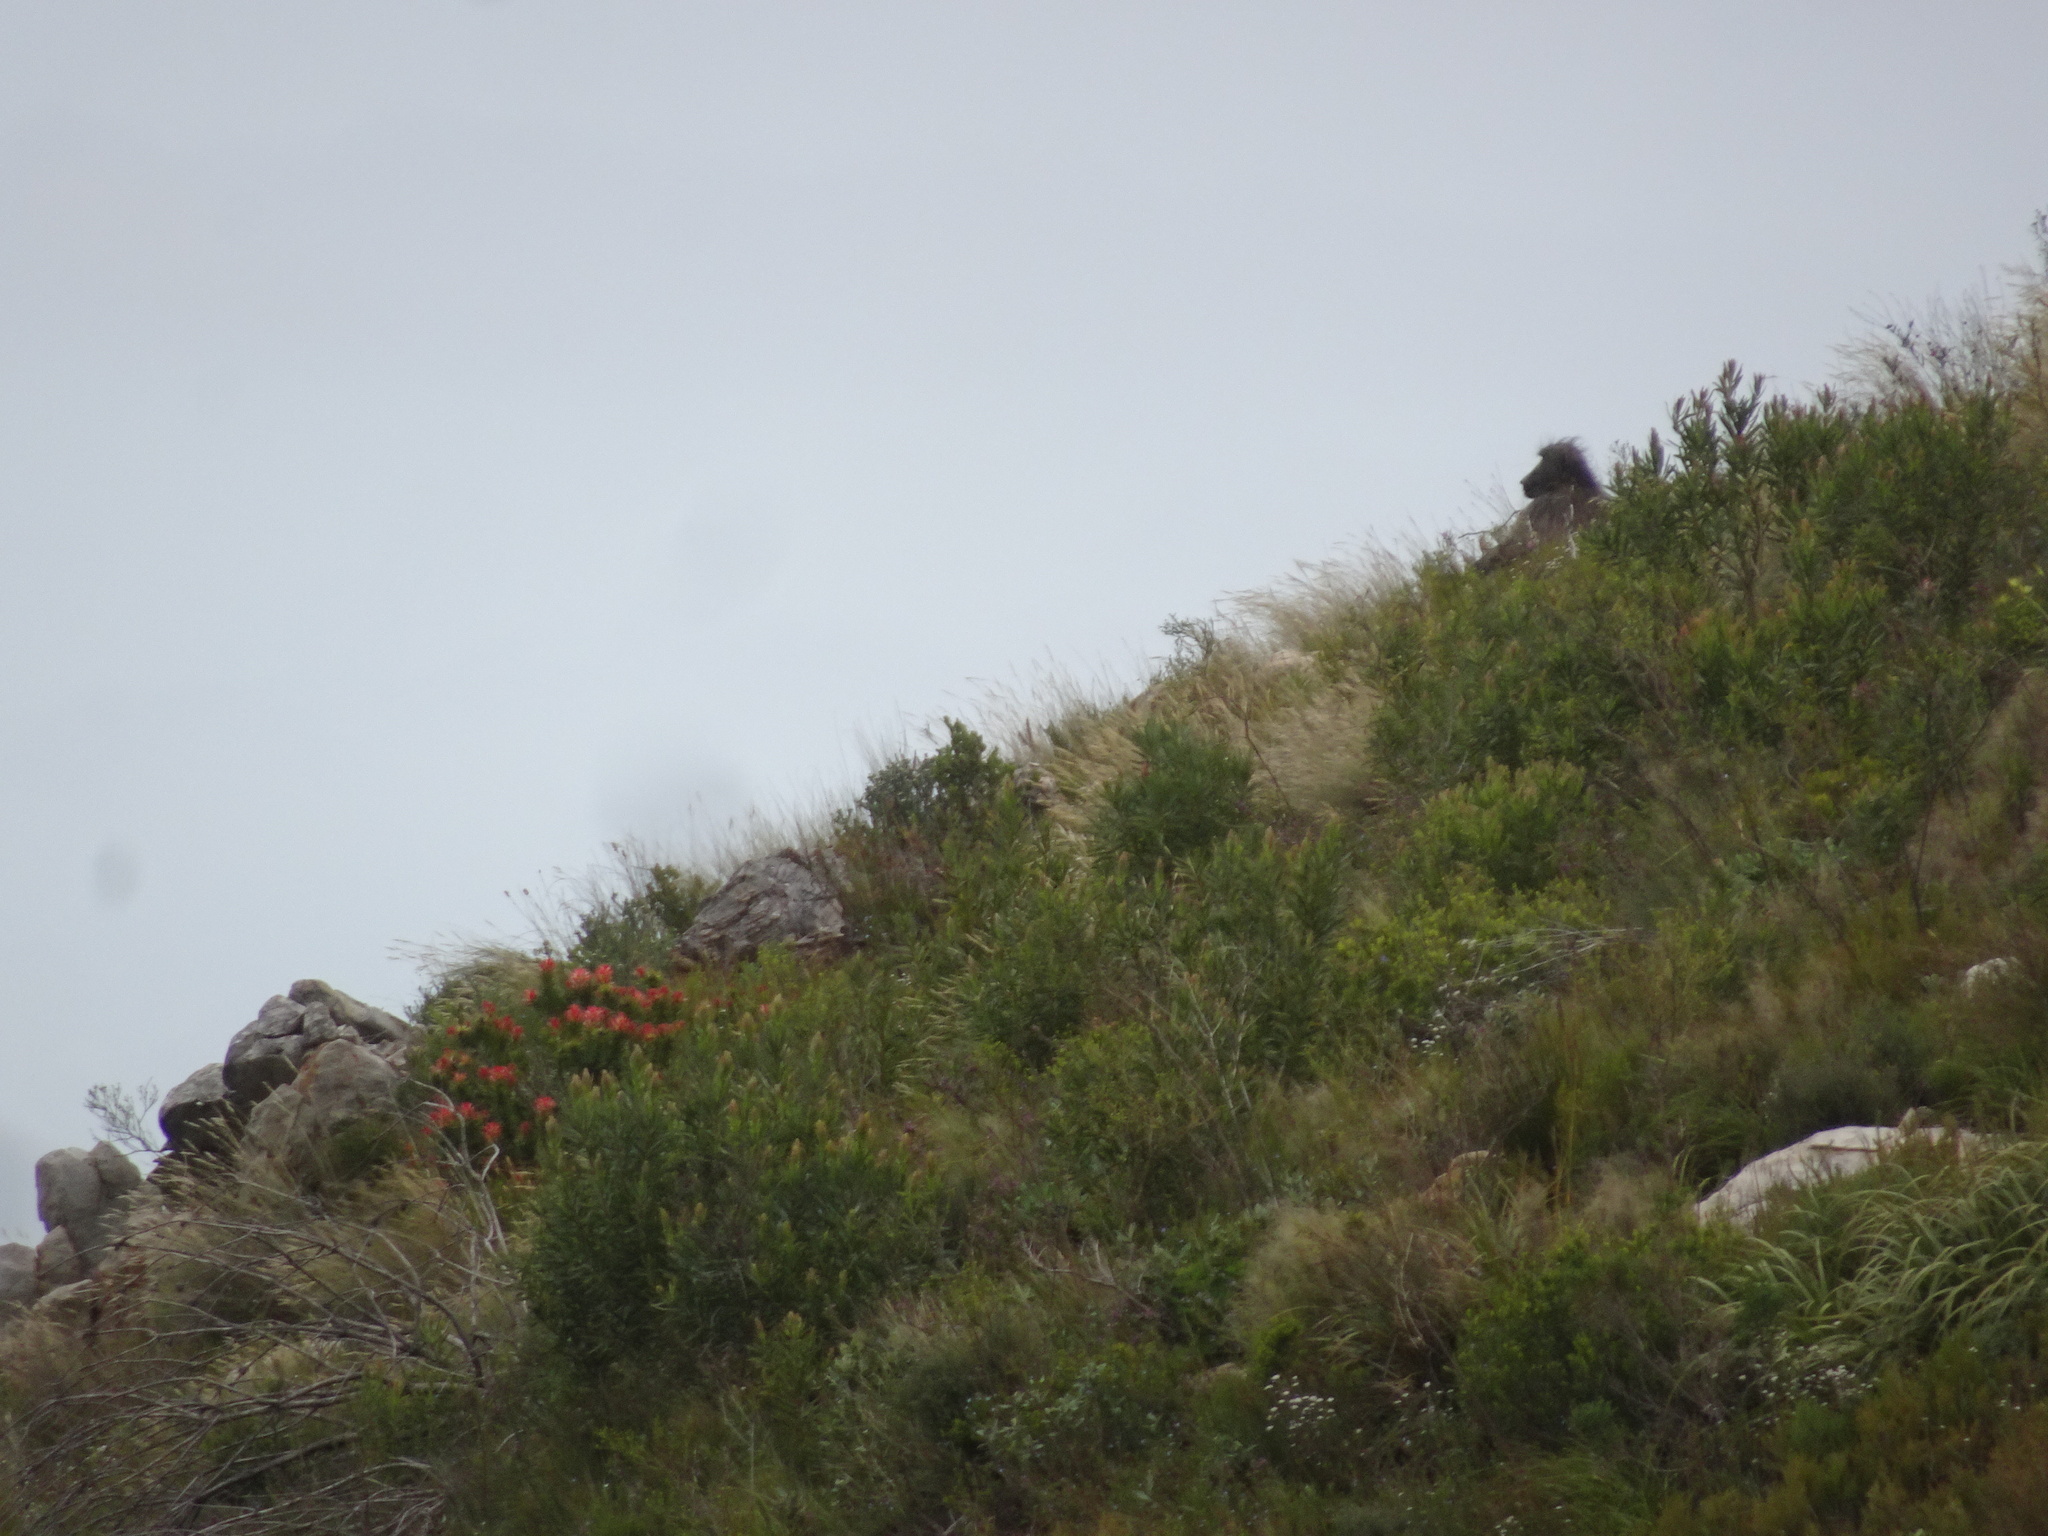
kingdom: Animalia
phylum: Chordata
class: Mammalia
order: Primates
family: Cercopithecidae
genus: Papio
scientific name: Papio ursinus
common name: Chacma baboon
